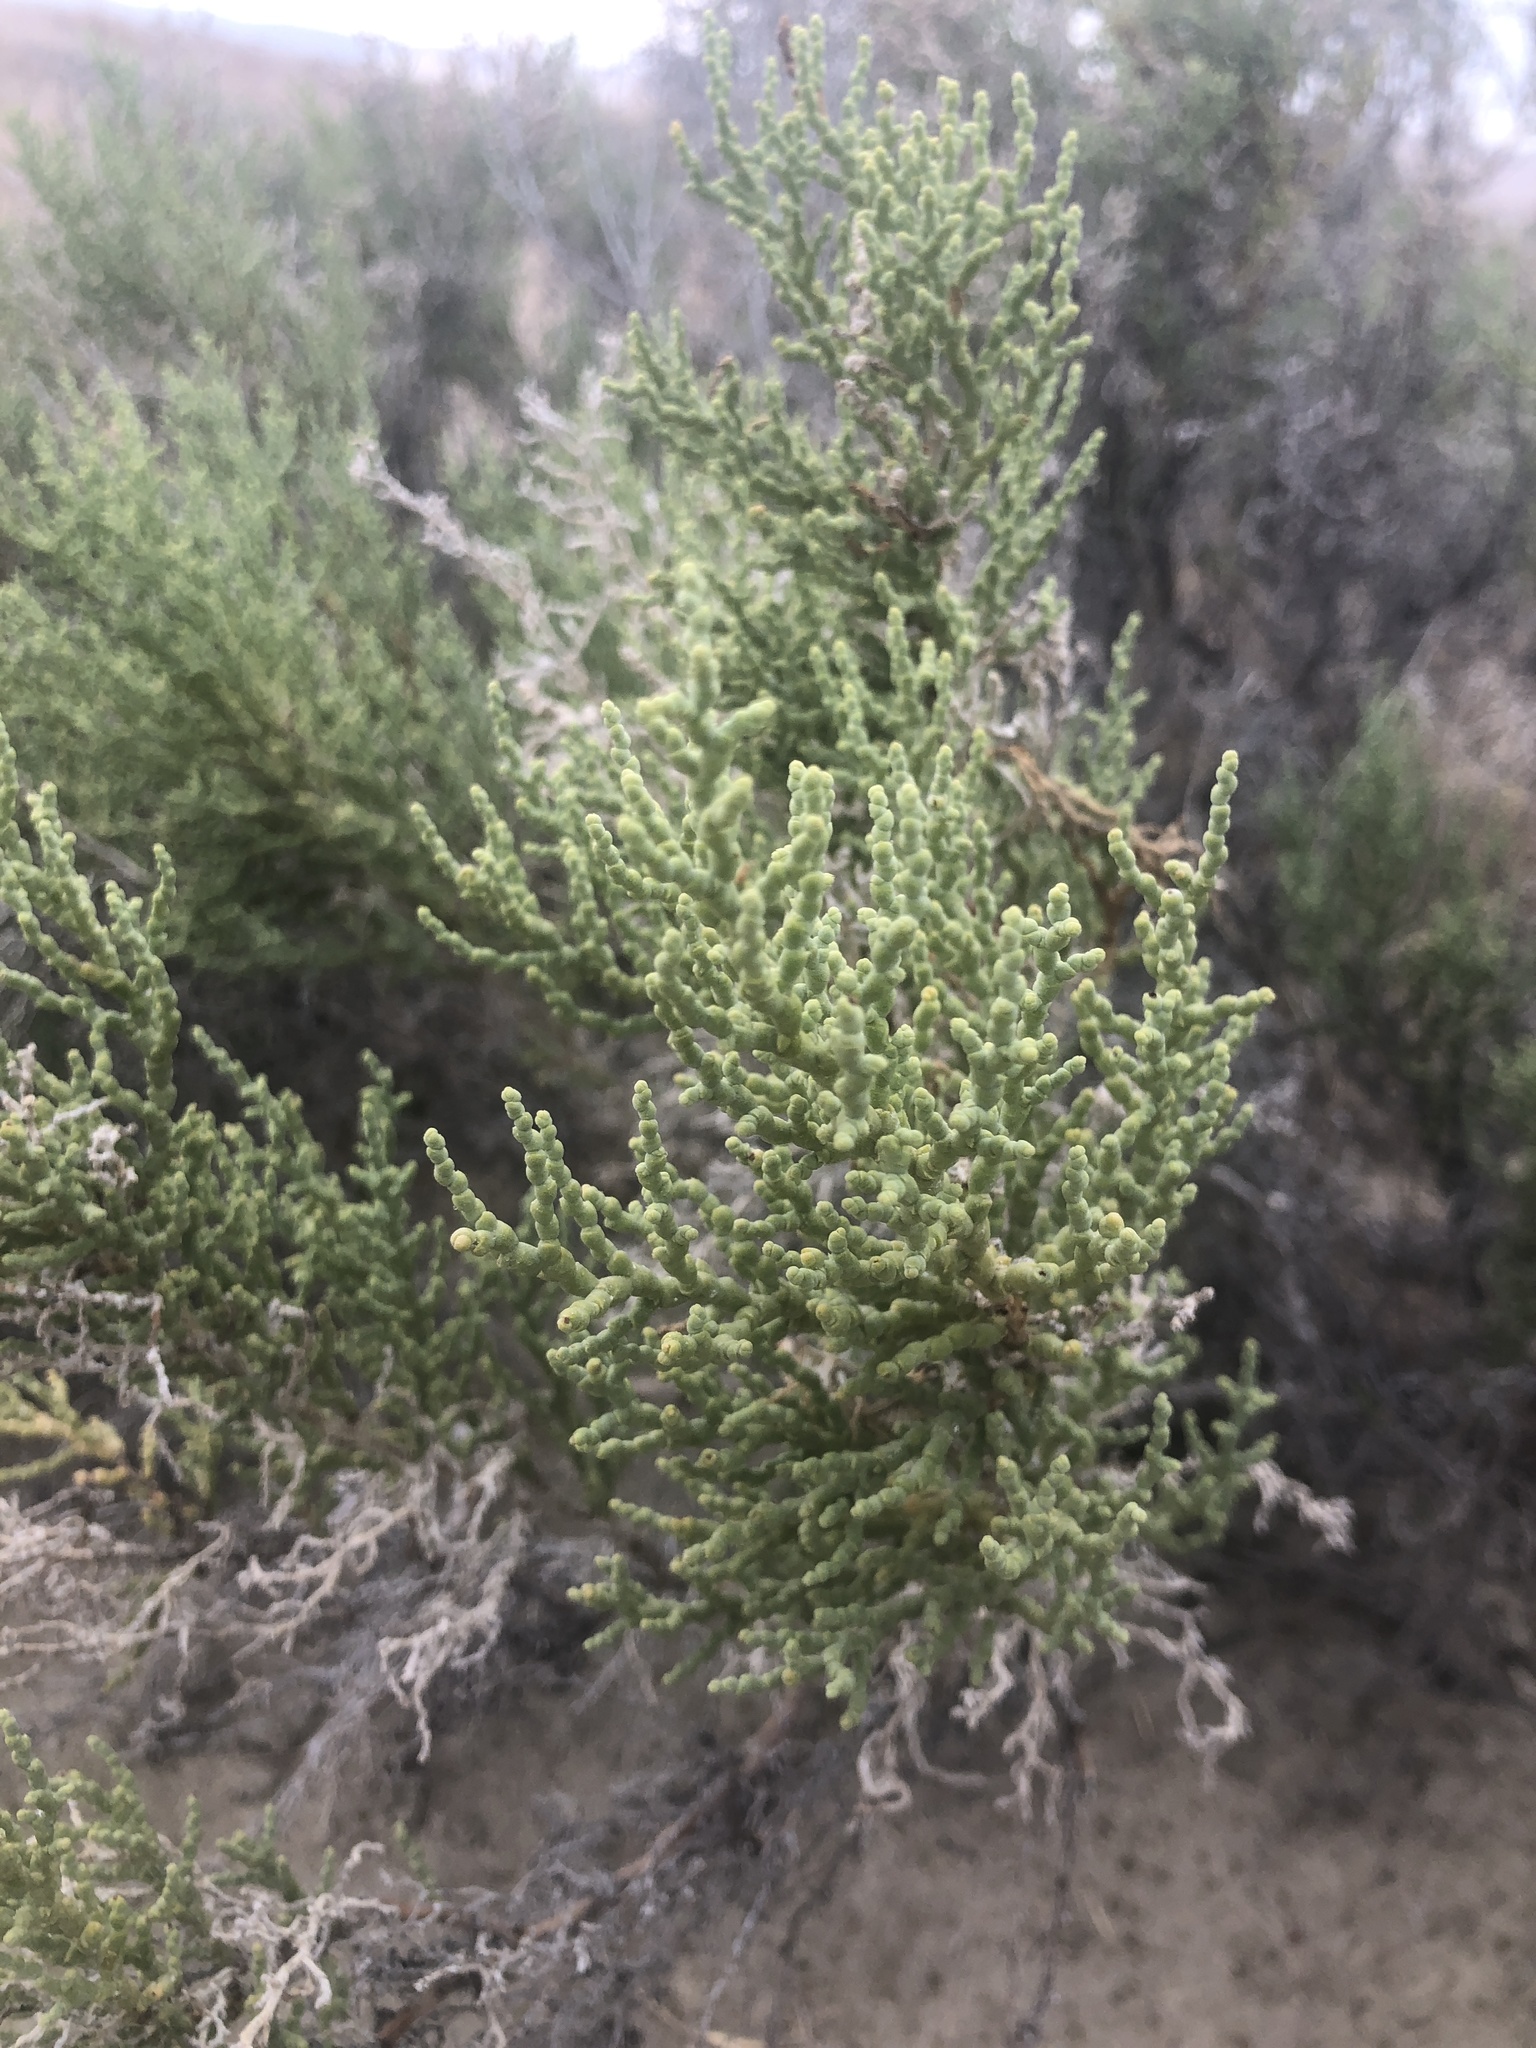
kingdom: Plantae
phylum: Tracheophyta
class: Magnoliopsida
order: Caryophyllales
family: Amaranthaceae
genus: Allenrolfea
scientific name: Allenrolfea occidentalis
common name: Iodine-bush
